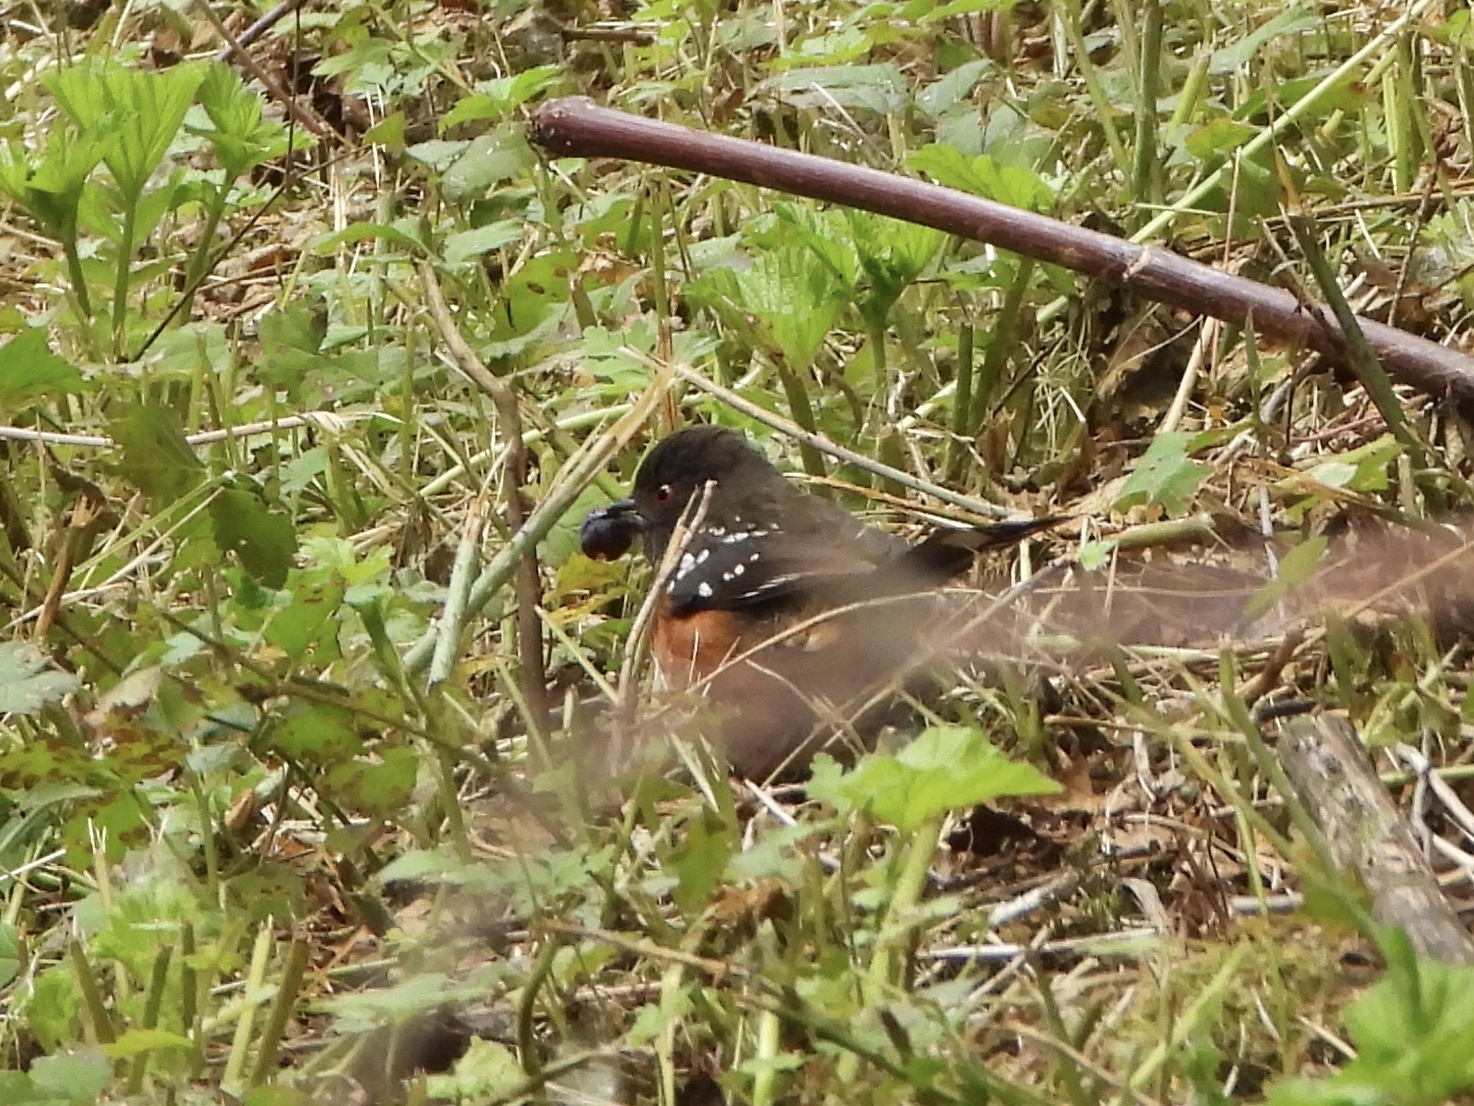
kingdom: Animalia
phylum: Chordata
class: Aves
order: Passeriformes
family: Passerellidae
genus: Pipilo
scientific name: Pipilo maculatus
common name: Spotted towhee
